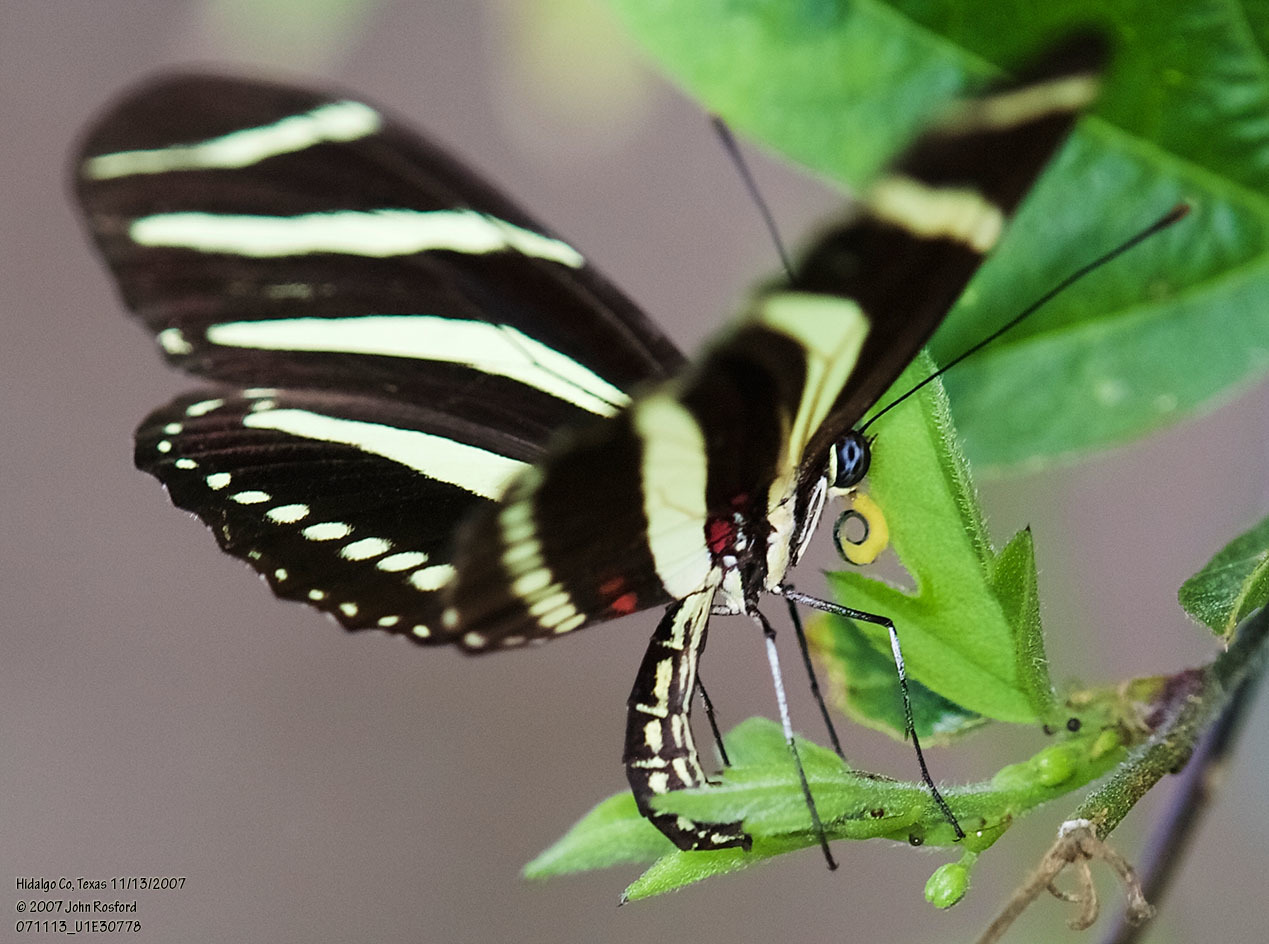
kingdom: Animalia
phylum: Arthropoda
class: Insecta
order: Lepidoptera
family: Nymphalidae
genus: Heliconius
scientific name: Heliconius charithonia
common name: Zebra long wing
